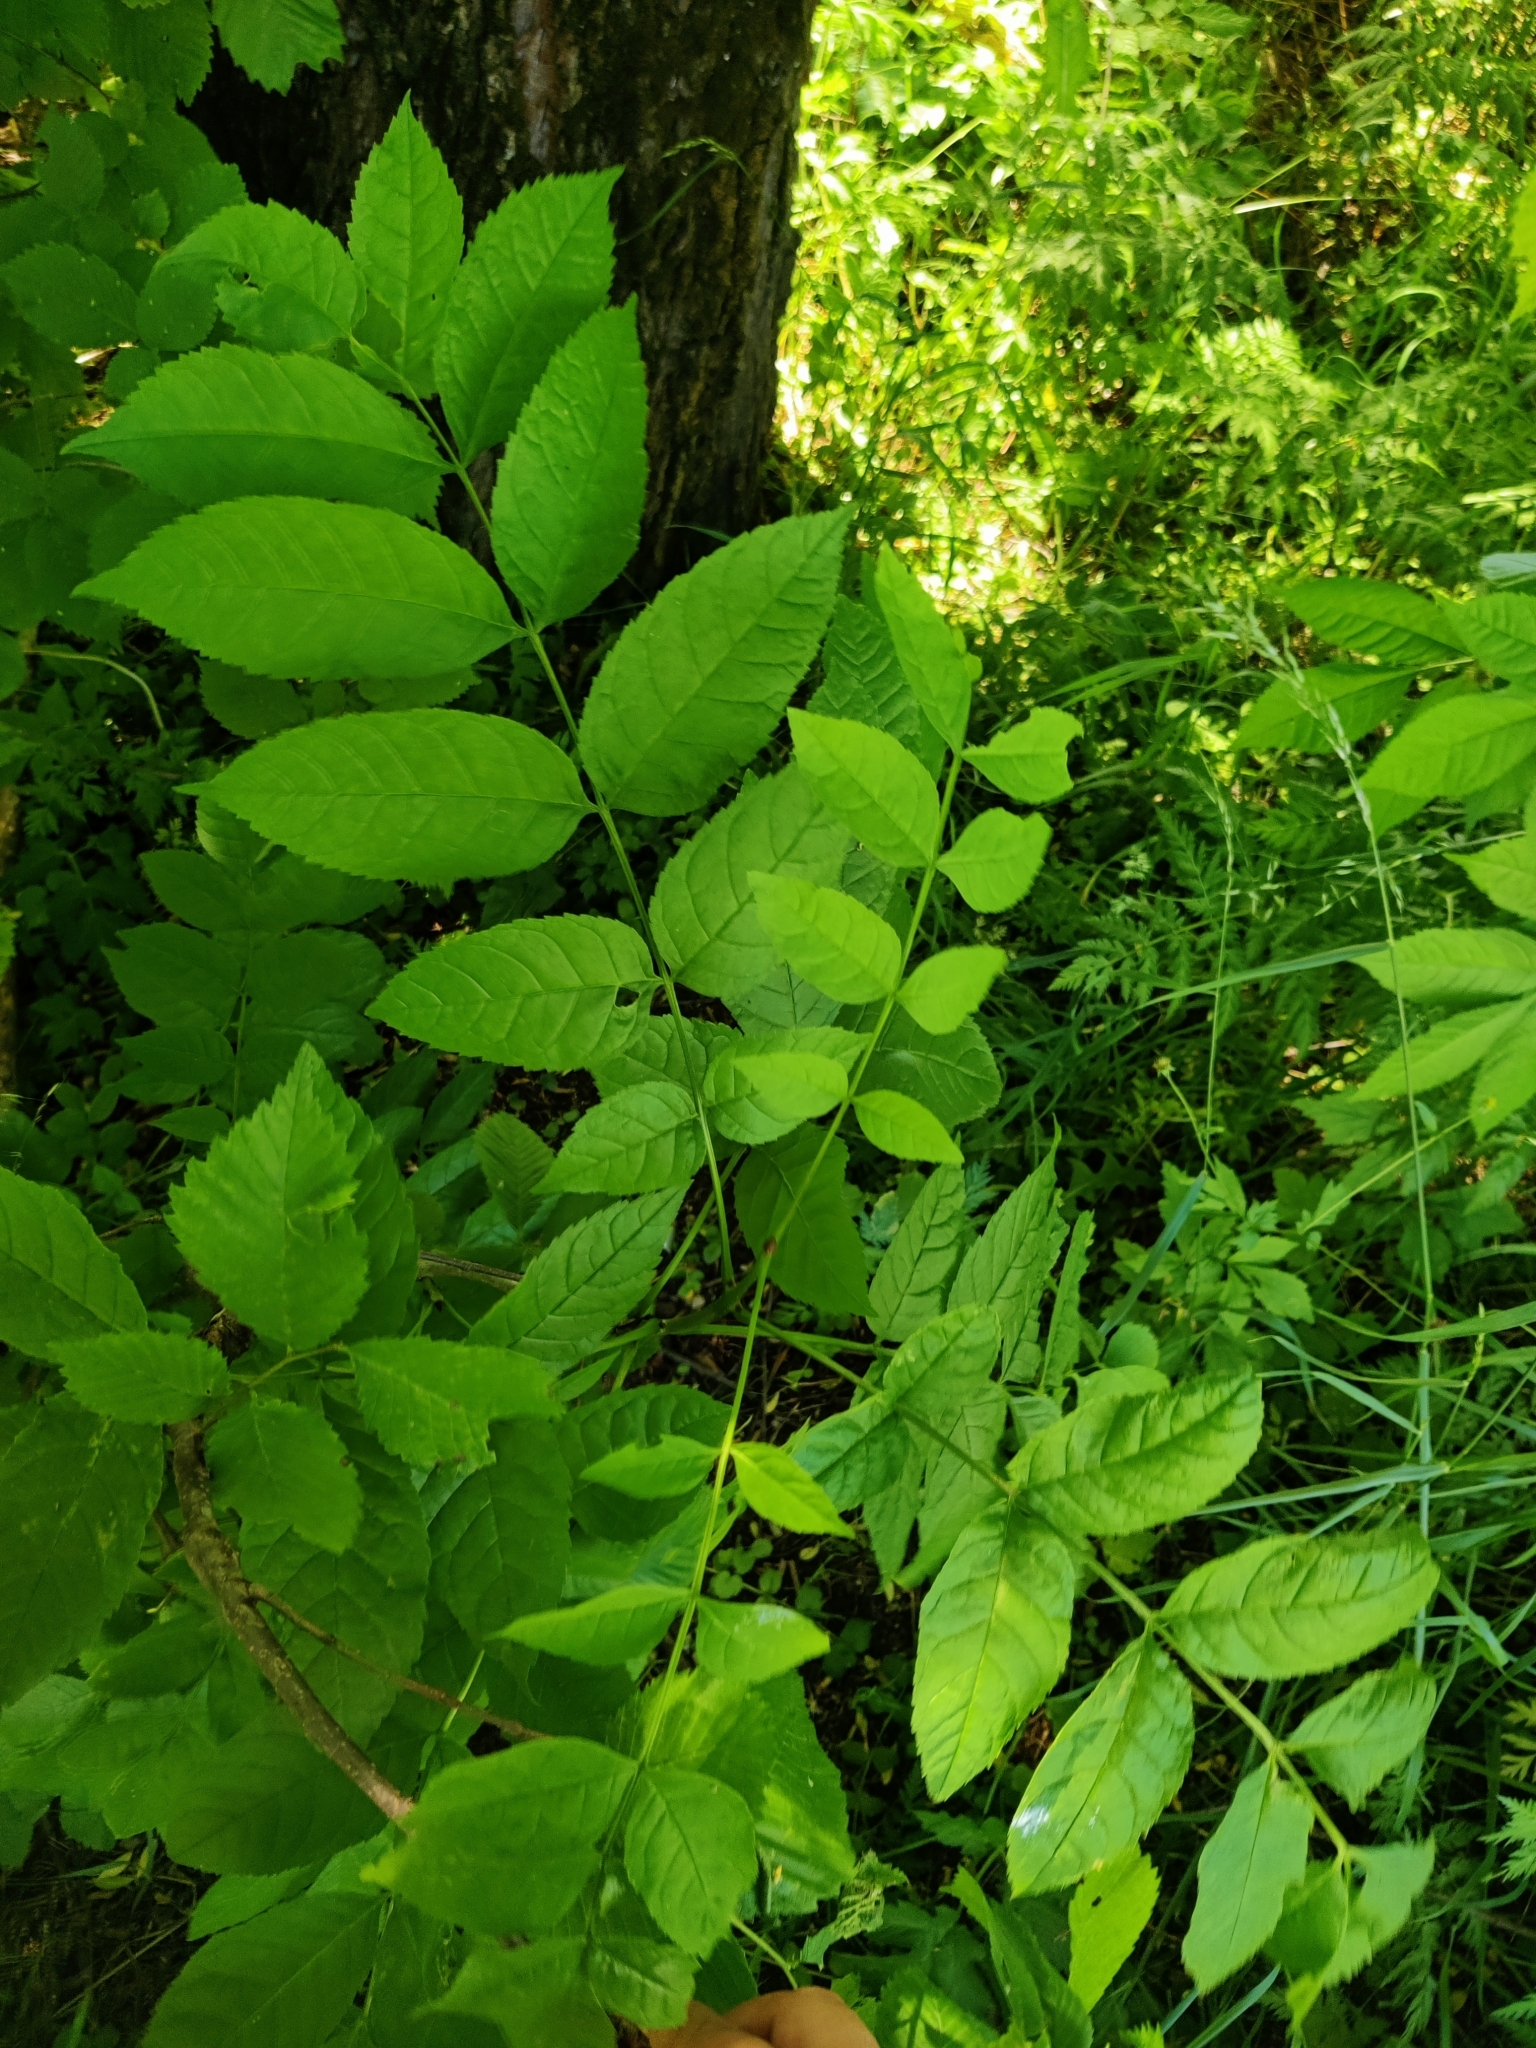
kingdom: Plantae
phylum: Tracheophyta
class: Magnoliopsida
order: Lamiales
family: Oleaceae
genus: Fraxinus
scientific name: Fraxinus excelsior
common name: European ash
